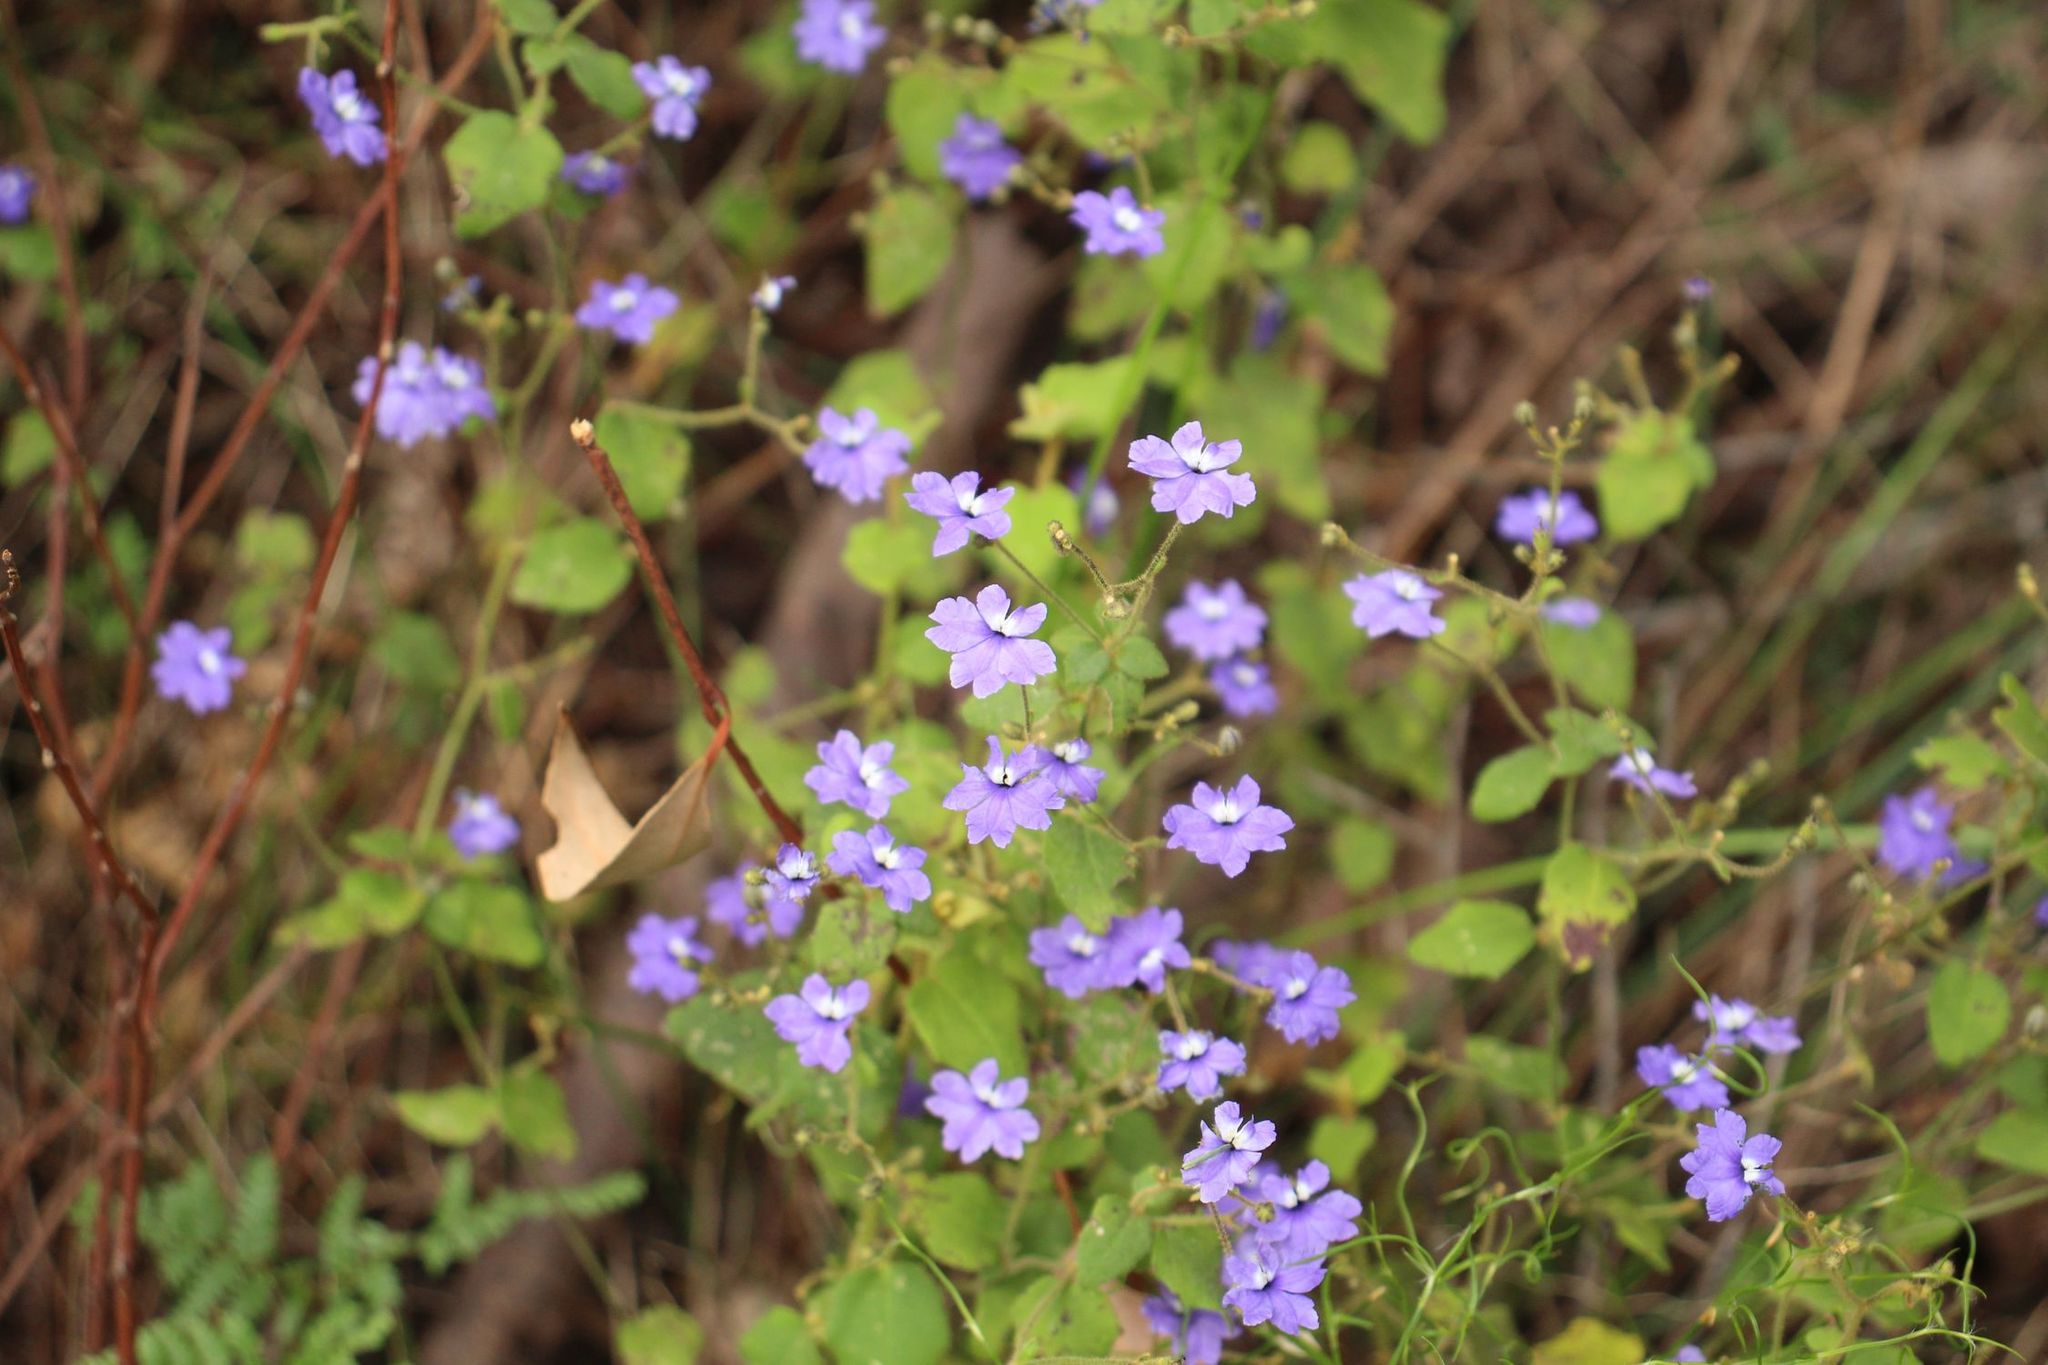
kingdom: Plantae
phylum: Tracheophyta
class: Magnoliopsida
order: Asterales
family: Goodeniaceae
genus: Dampiera
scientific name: Dampiera hederacea
